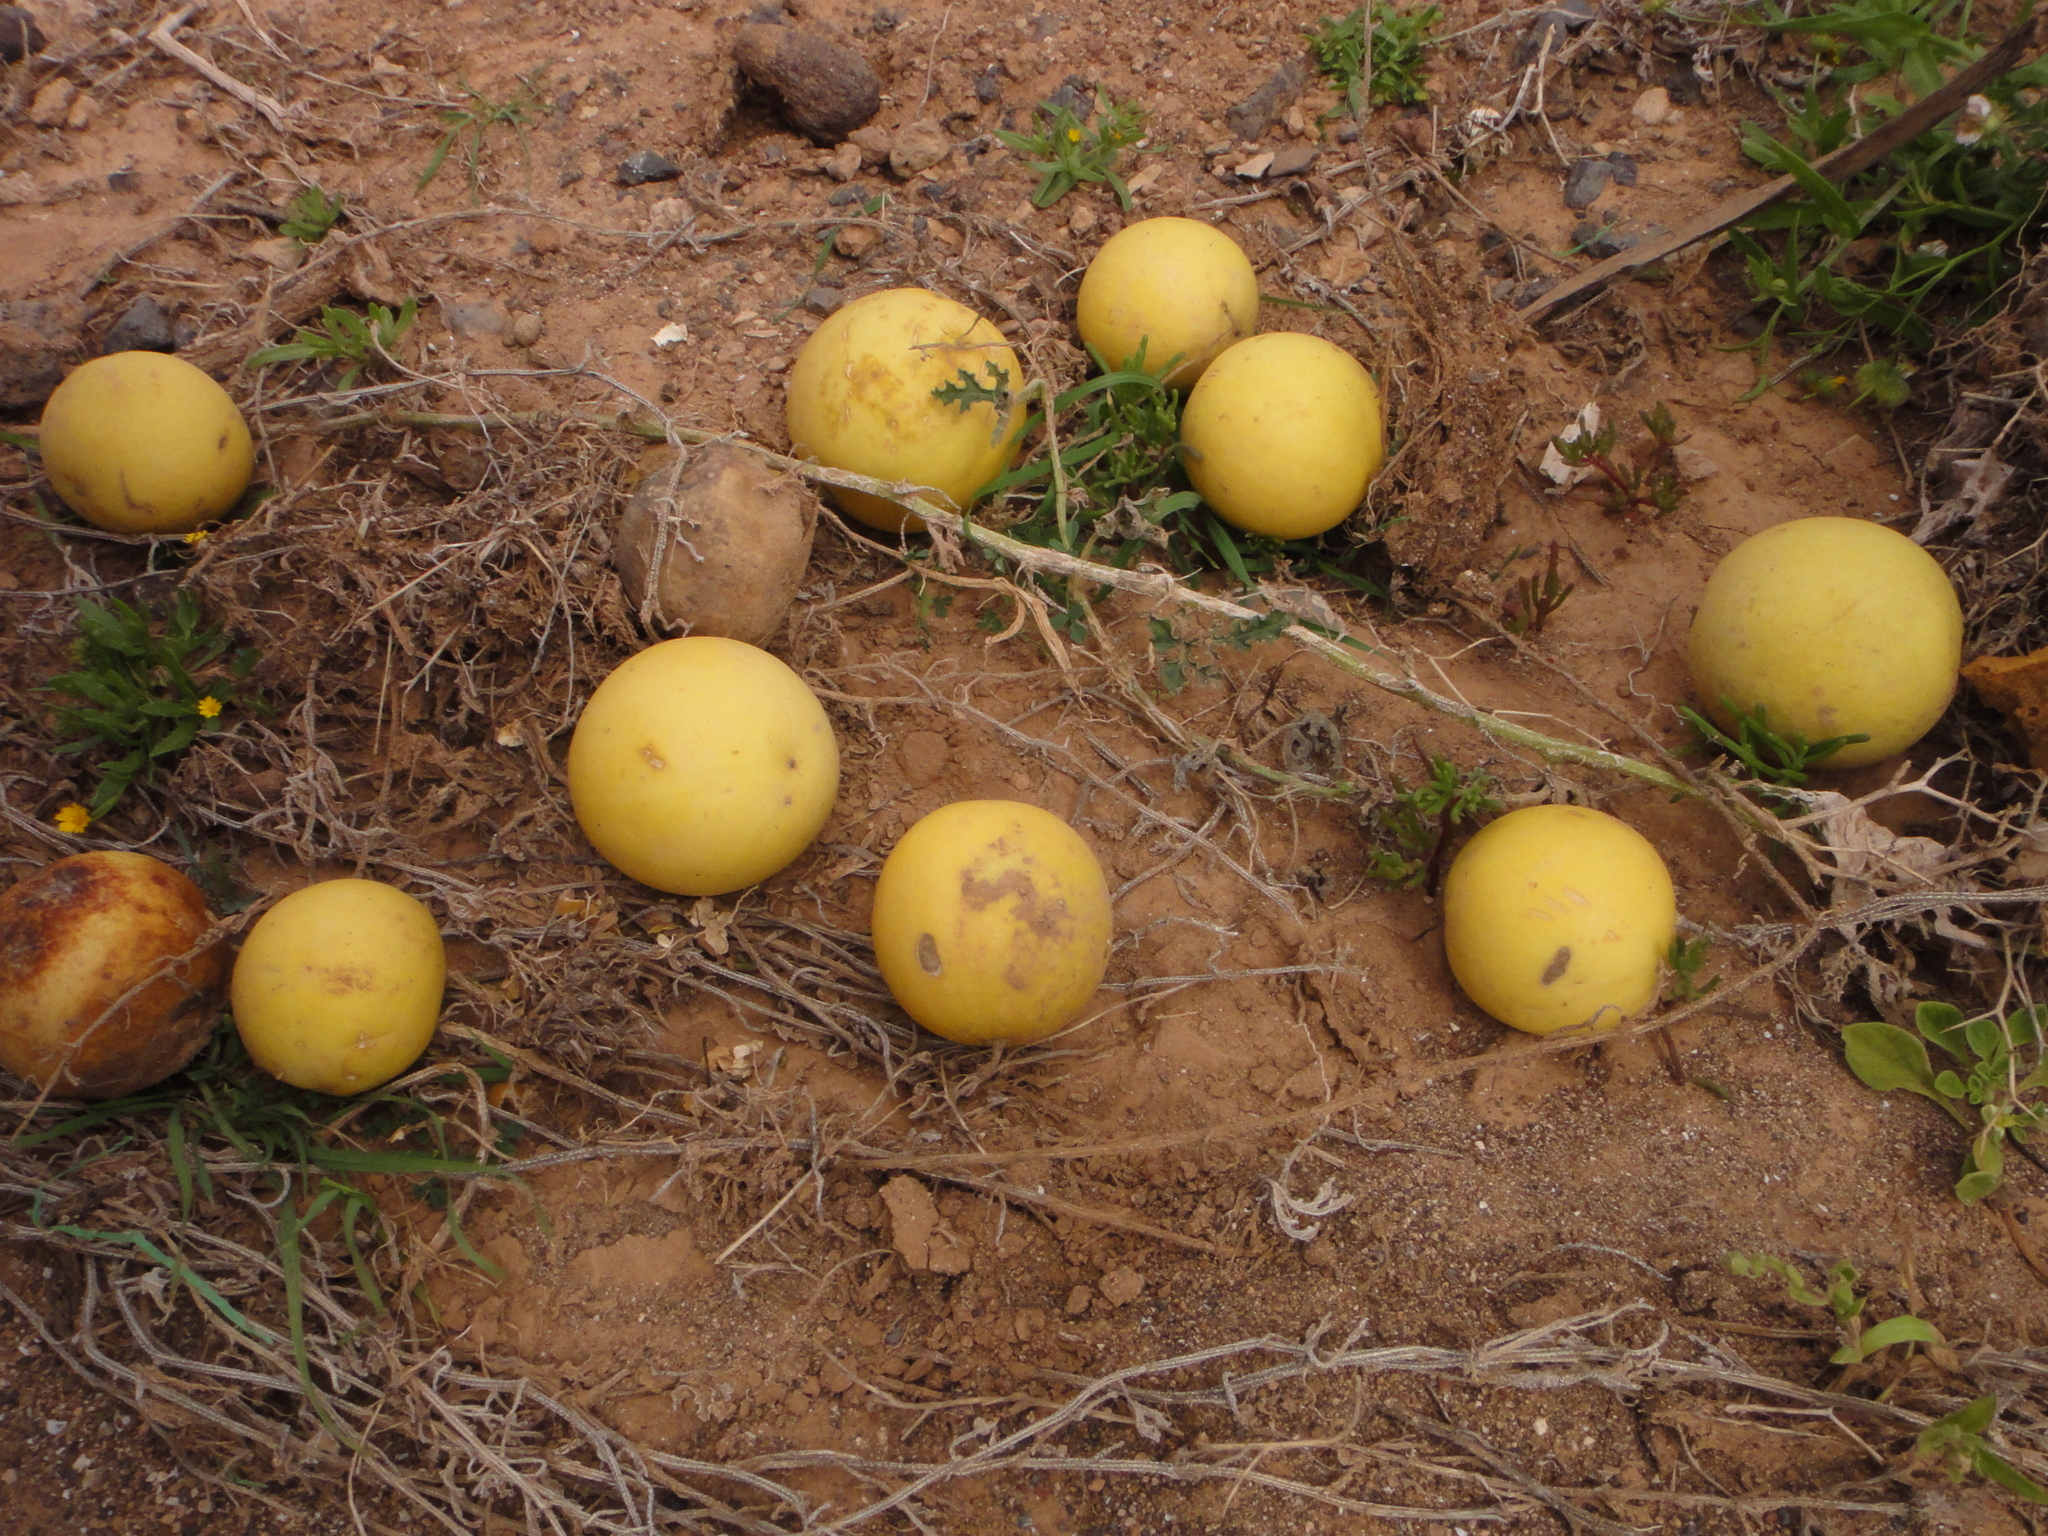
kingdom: Plantae
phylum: Tracheophyta
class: Magnoliopsida
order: Cucurbitales
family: Cucurbitaceae
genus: Citrullus
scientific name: Citrullus colocynthis
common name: Colocynth
